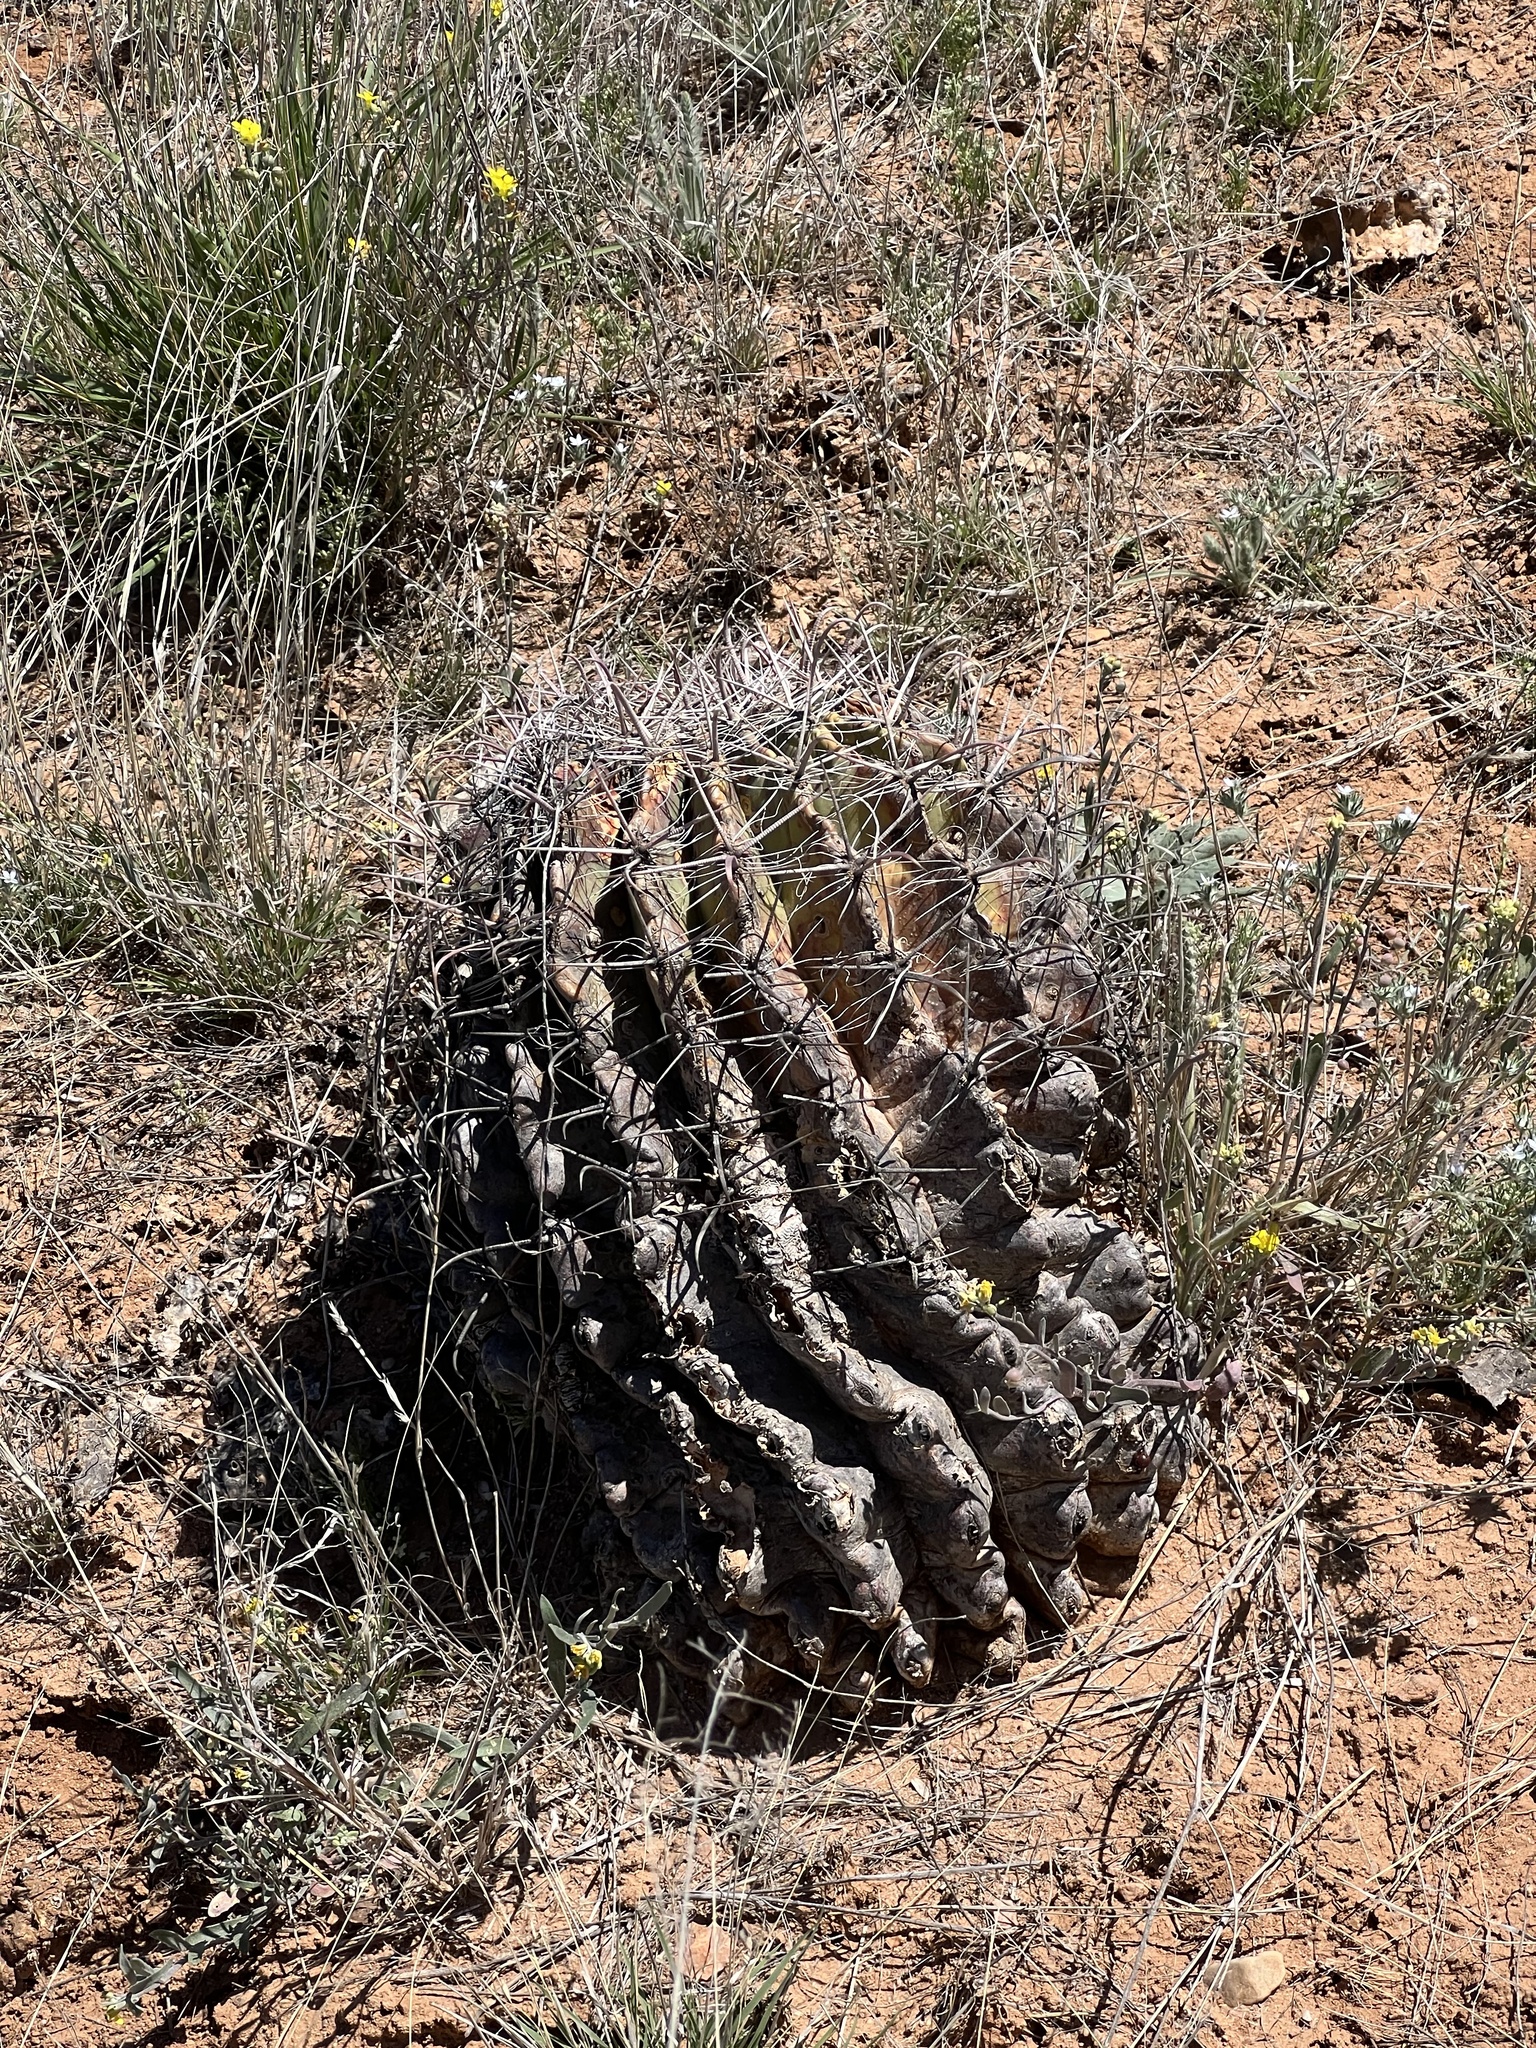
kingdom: Plantae
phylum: Tracheophyta
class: Magnoliopsida
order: Caryophyllales
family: Cactaceae
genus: Ferocactus
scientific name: Ferocactus wislizeni
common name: Candy barrel cactus
